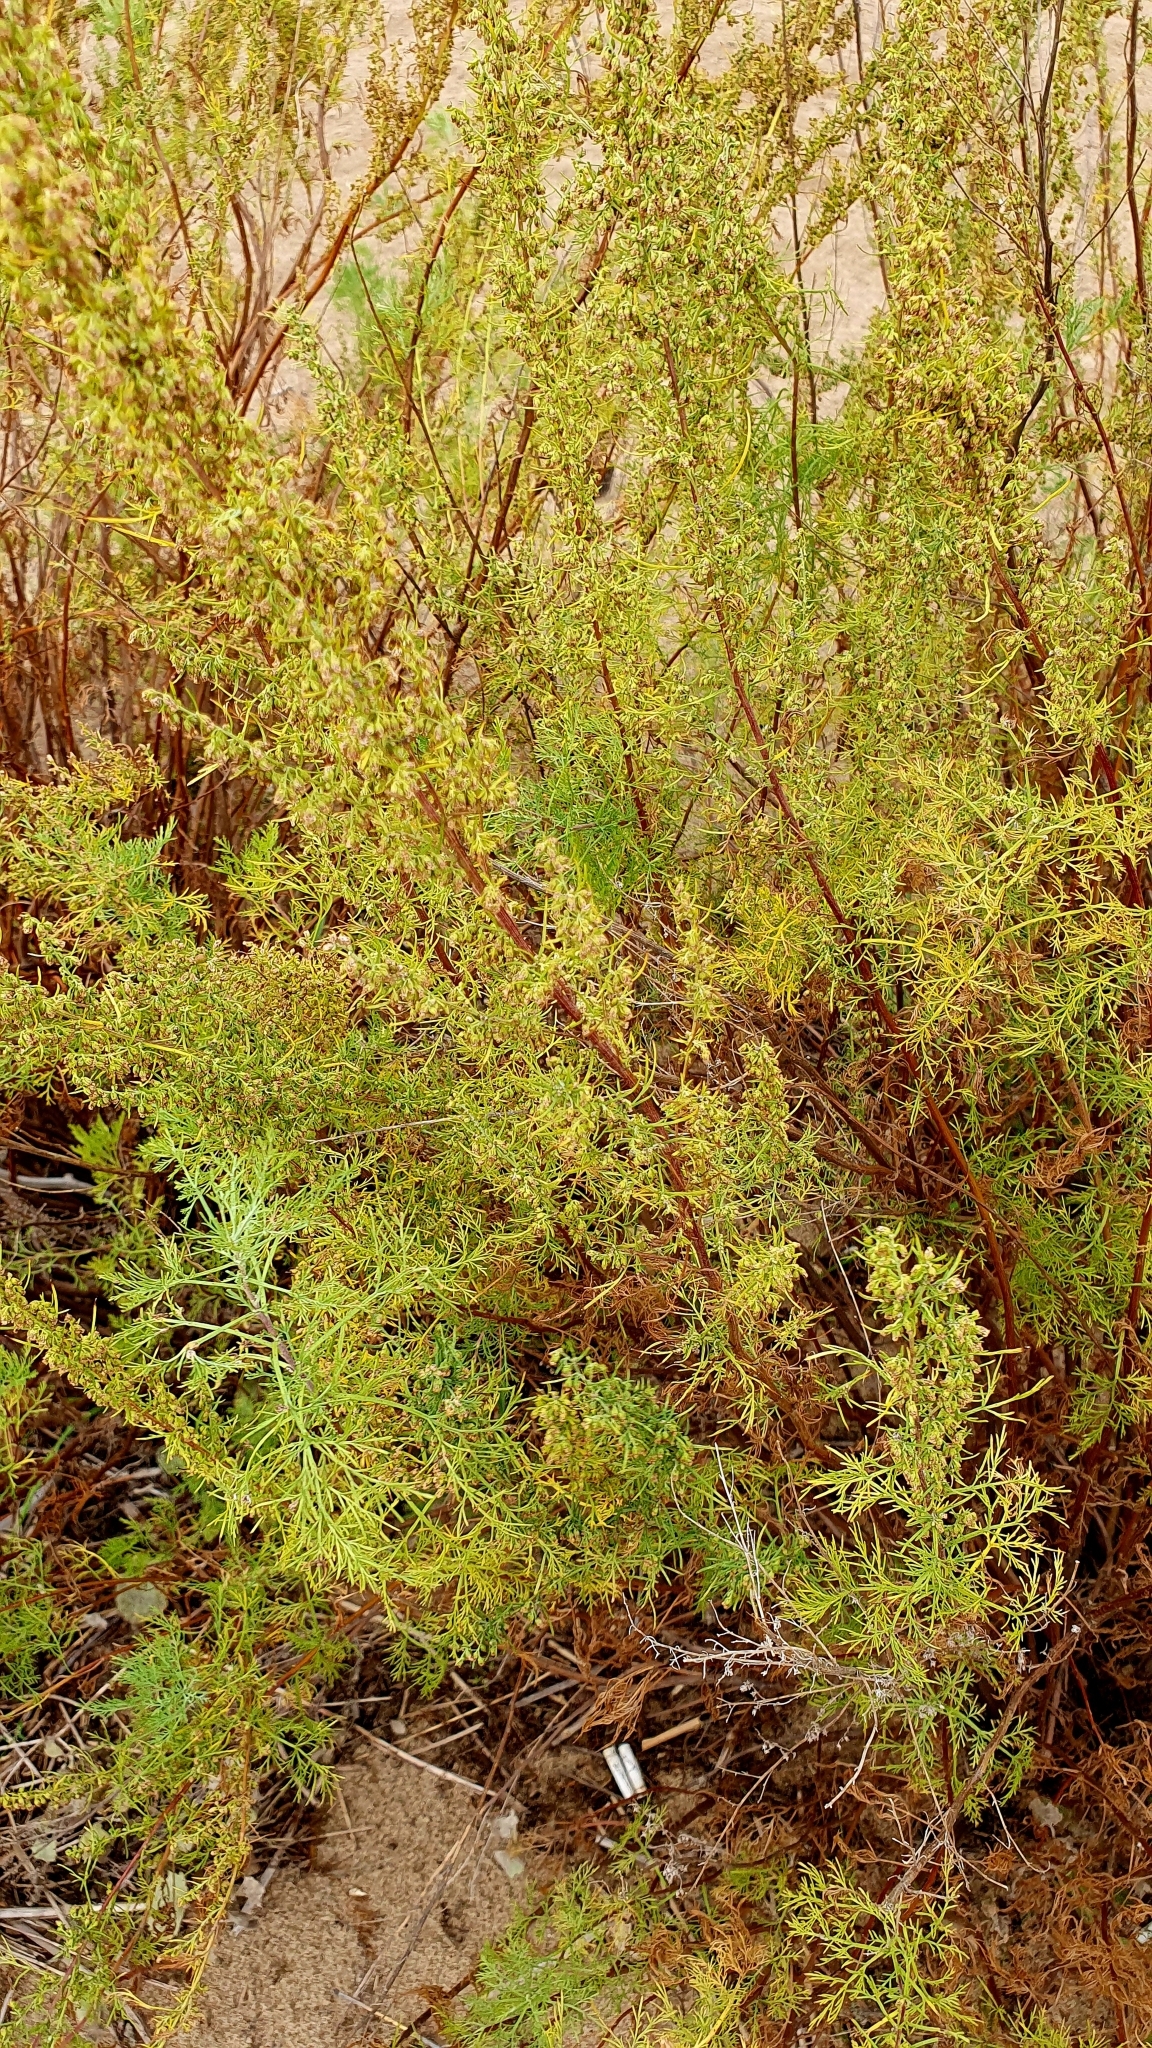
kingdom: Plantae
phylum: Tracheophyta
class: Magnoliopsida
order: Asterales
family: Asteraceae
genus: Artemisia
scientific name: Artemisia abrotanum
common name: Southernwood
